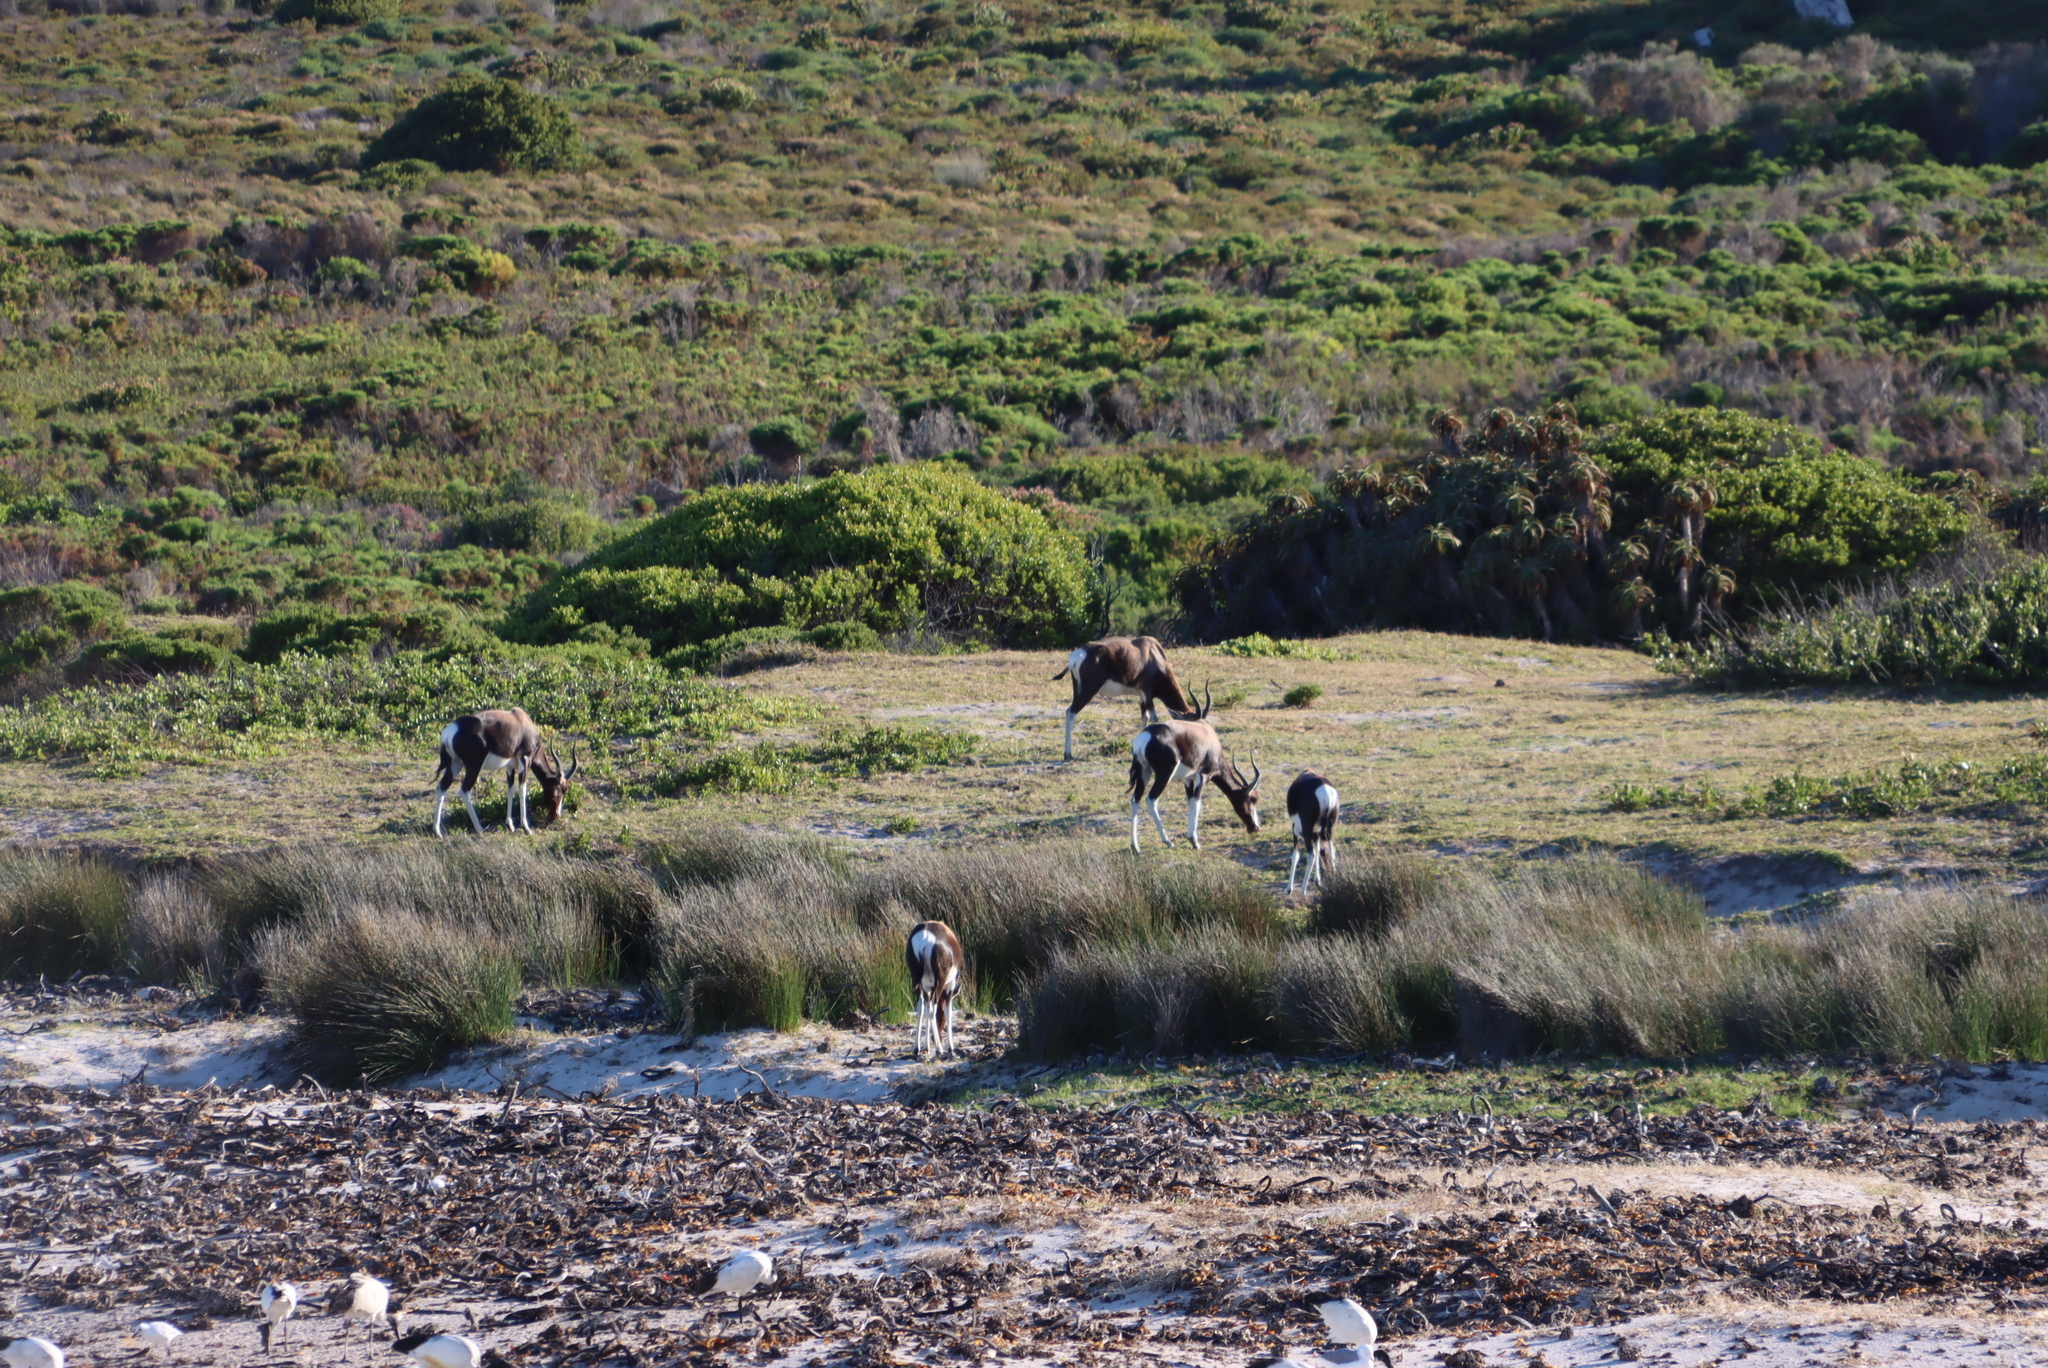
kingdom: Animalia
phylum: Chordata
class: Mammalia
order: Artiodactyla
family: Bovidae
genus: Damaliscus
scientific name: Damaliscus pygargus
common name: Bontebok
